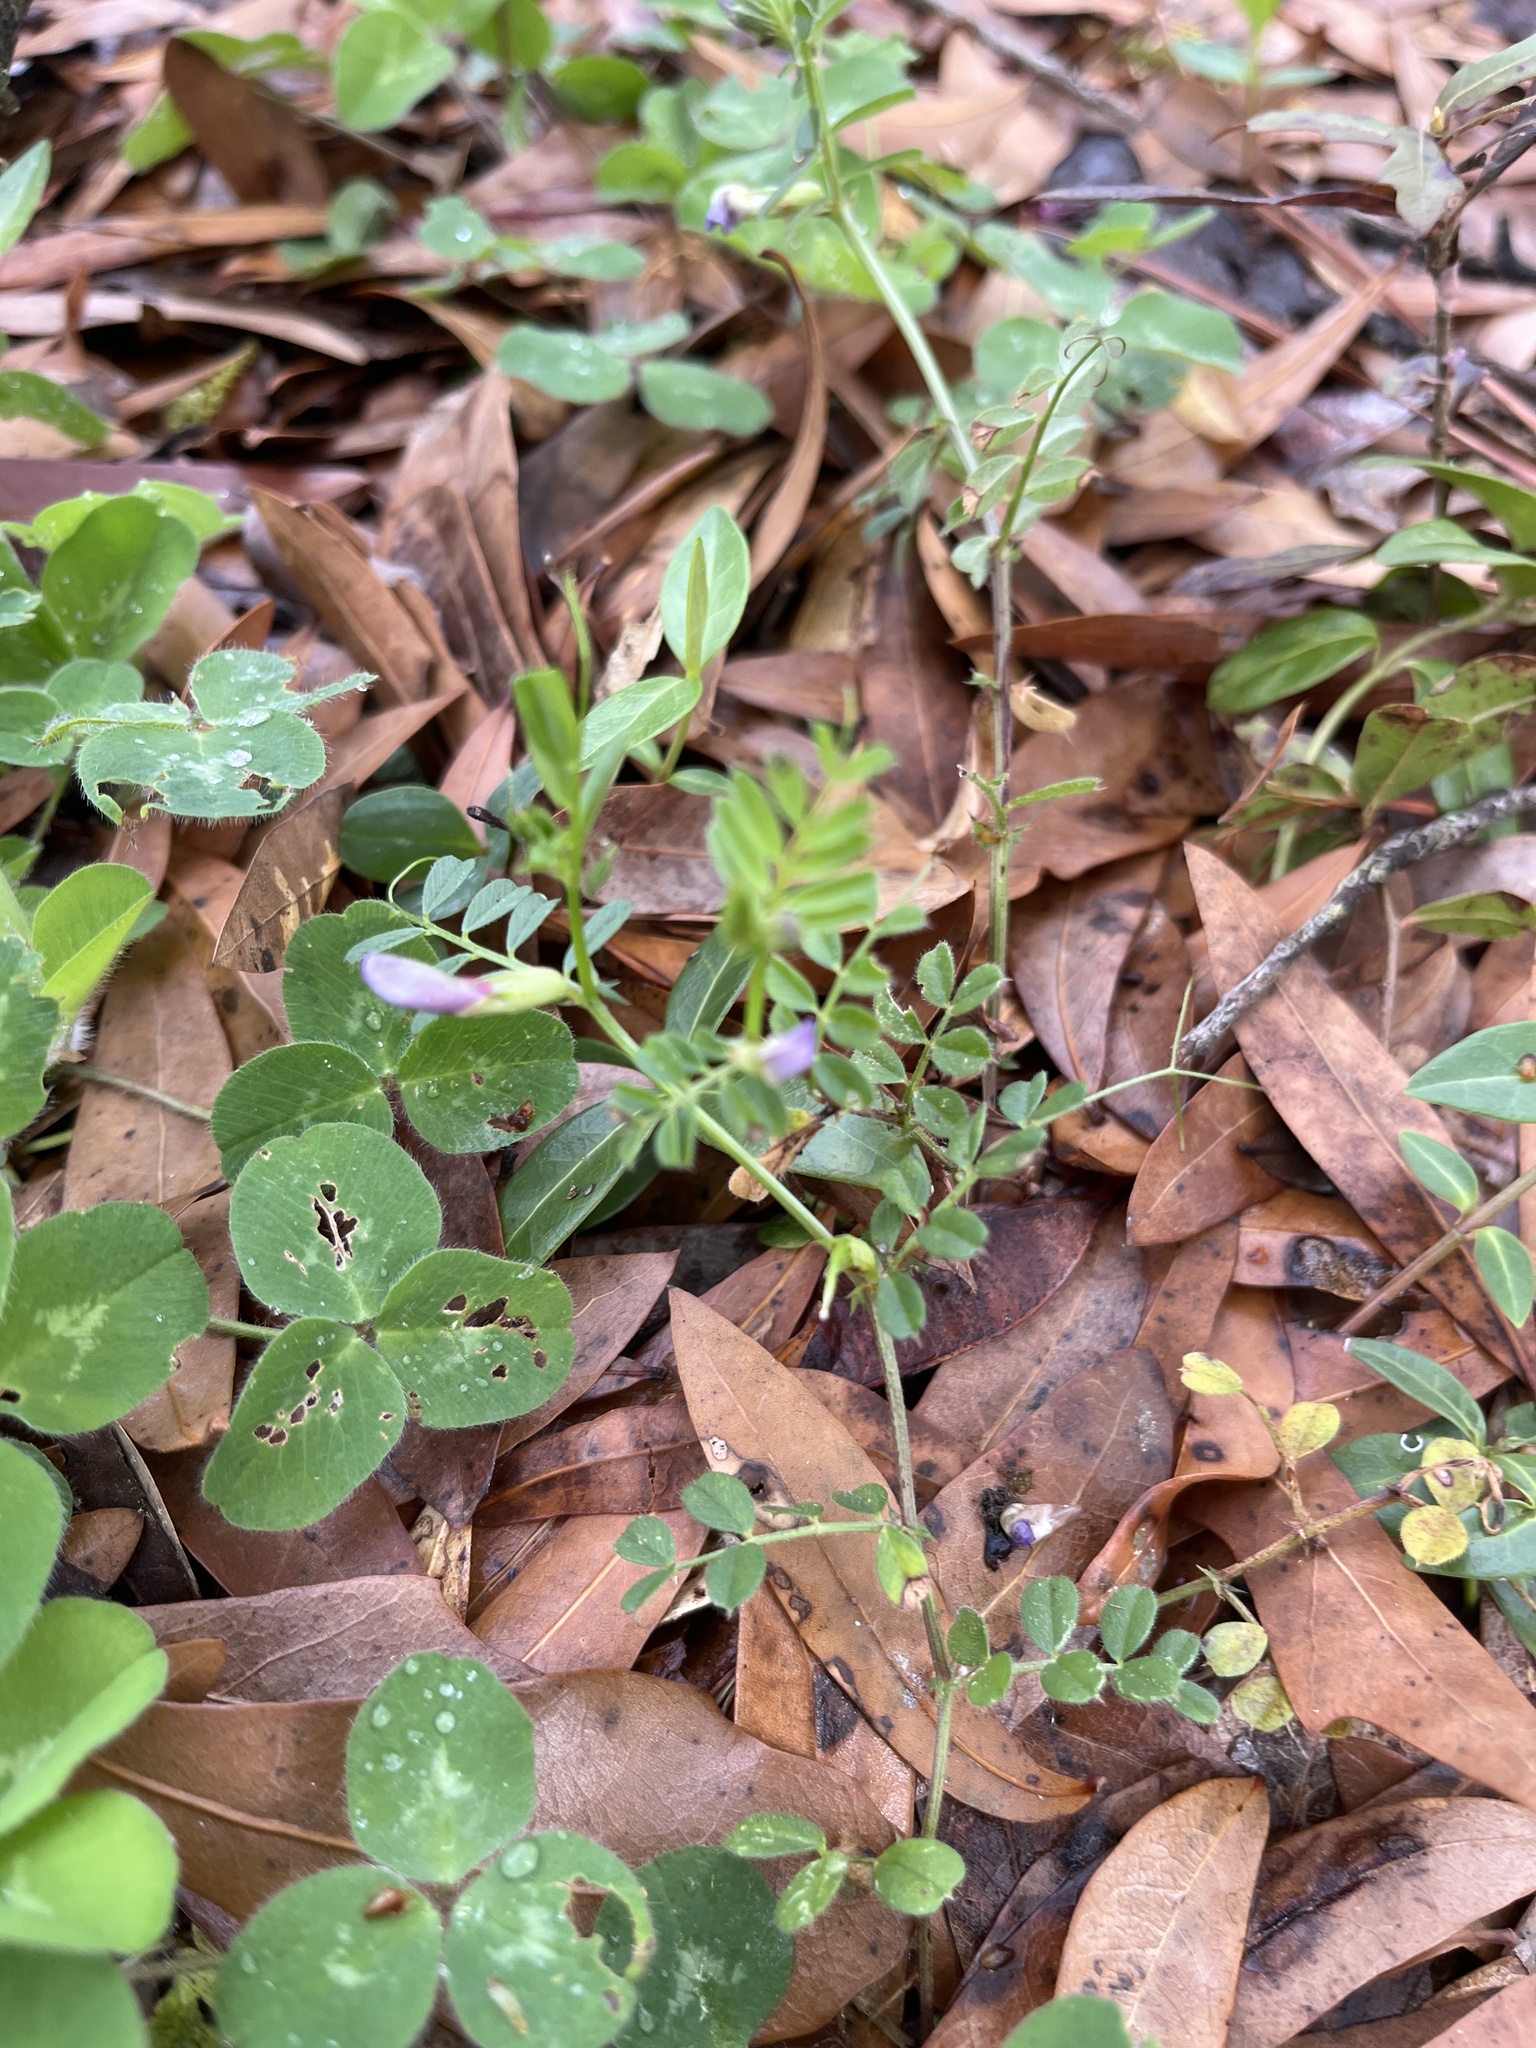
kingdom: Plantae
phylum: Tracheophyta
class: Magnoliopsida
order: Fabales
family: Fabaceae
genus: Vicia
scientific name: Vicia sativa
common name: Garden vetch
